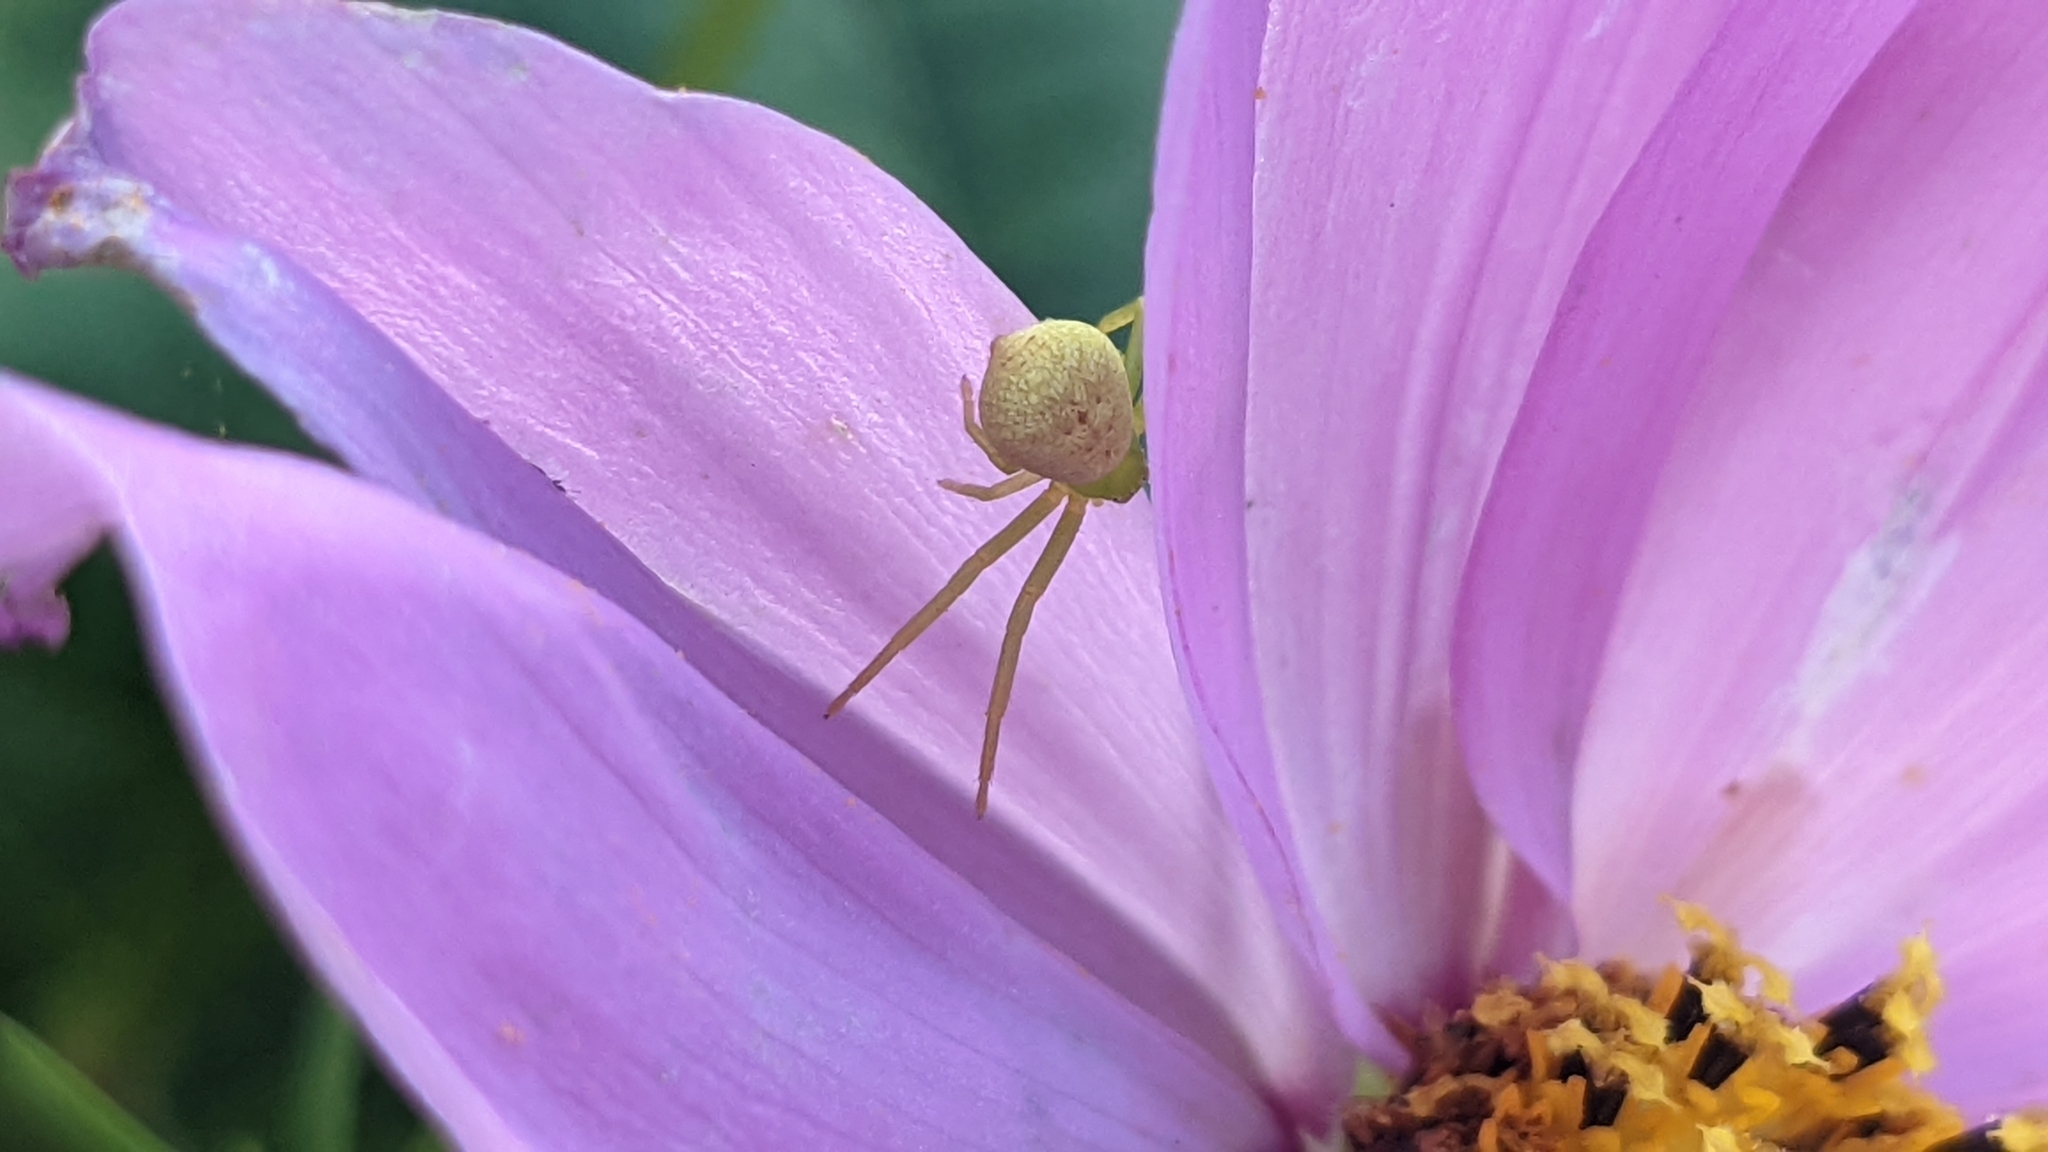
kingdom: Animalia
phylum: Arthropoda
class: Arachnida
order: Araneae
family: Thomisidae
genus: Ebrechtella
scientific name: Ebrechtella tricuspidata
